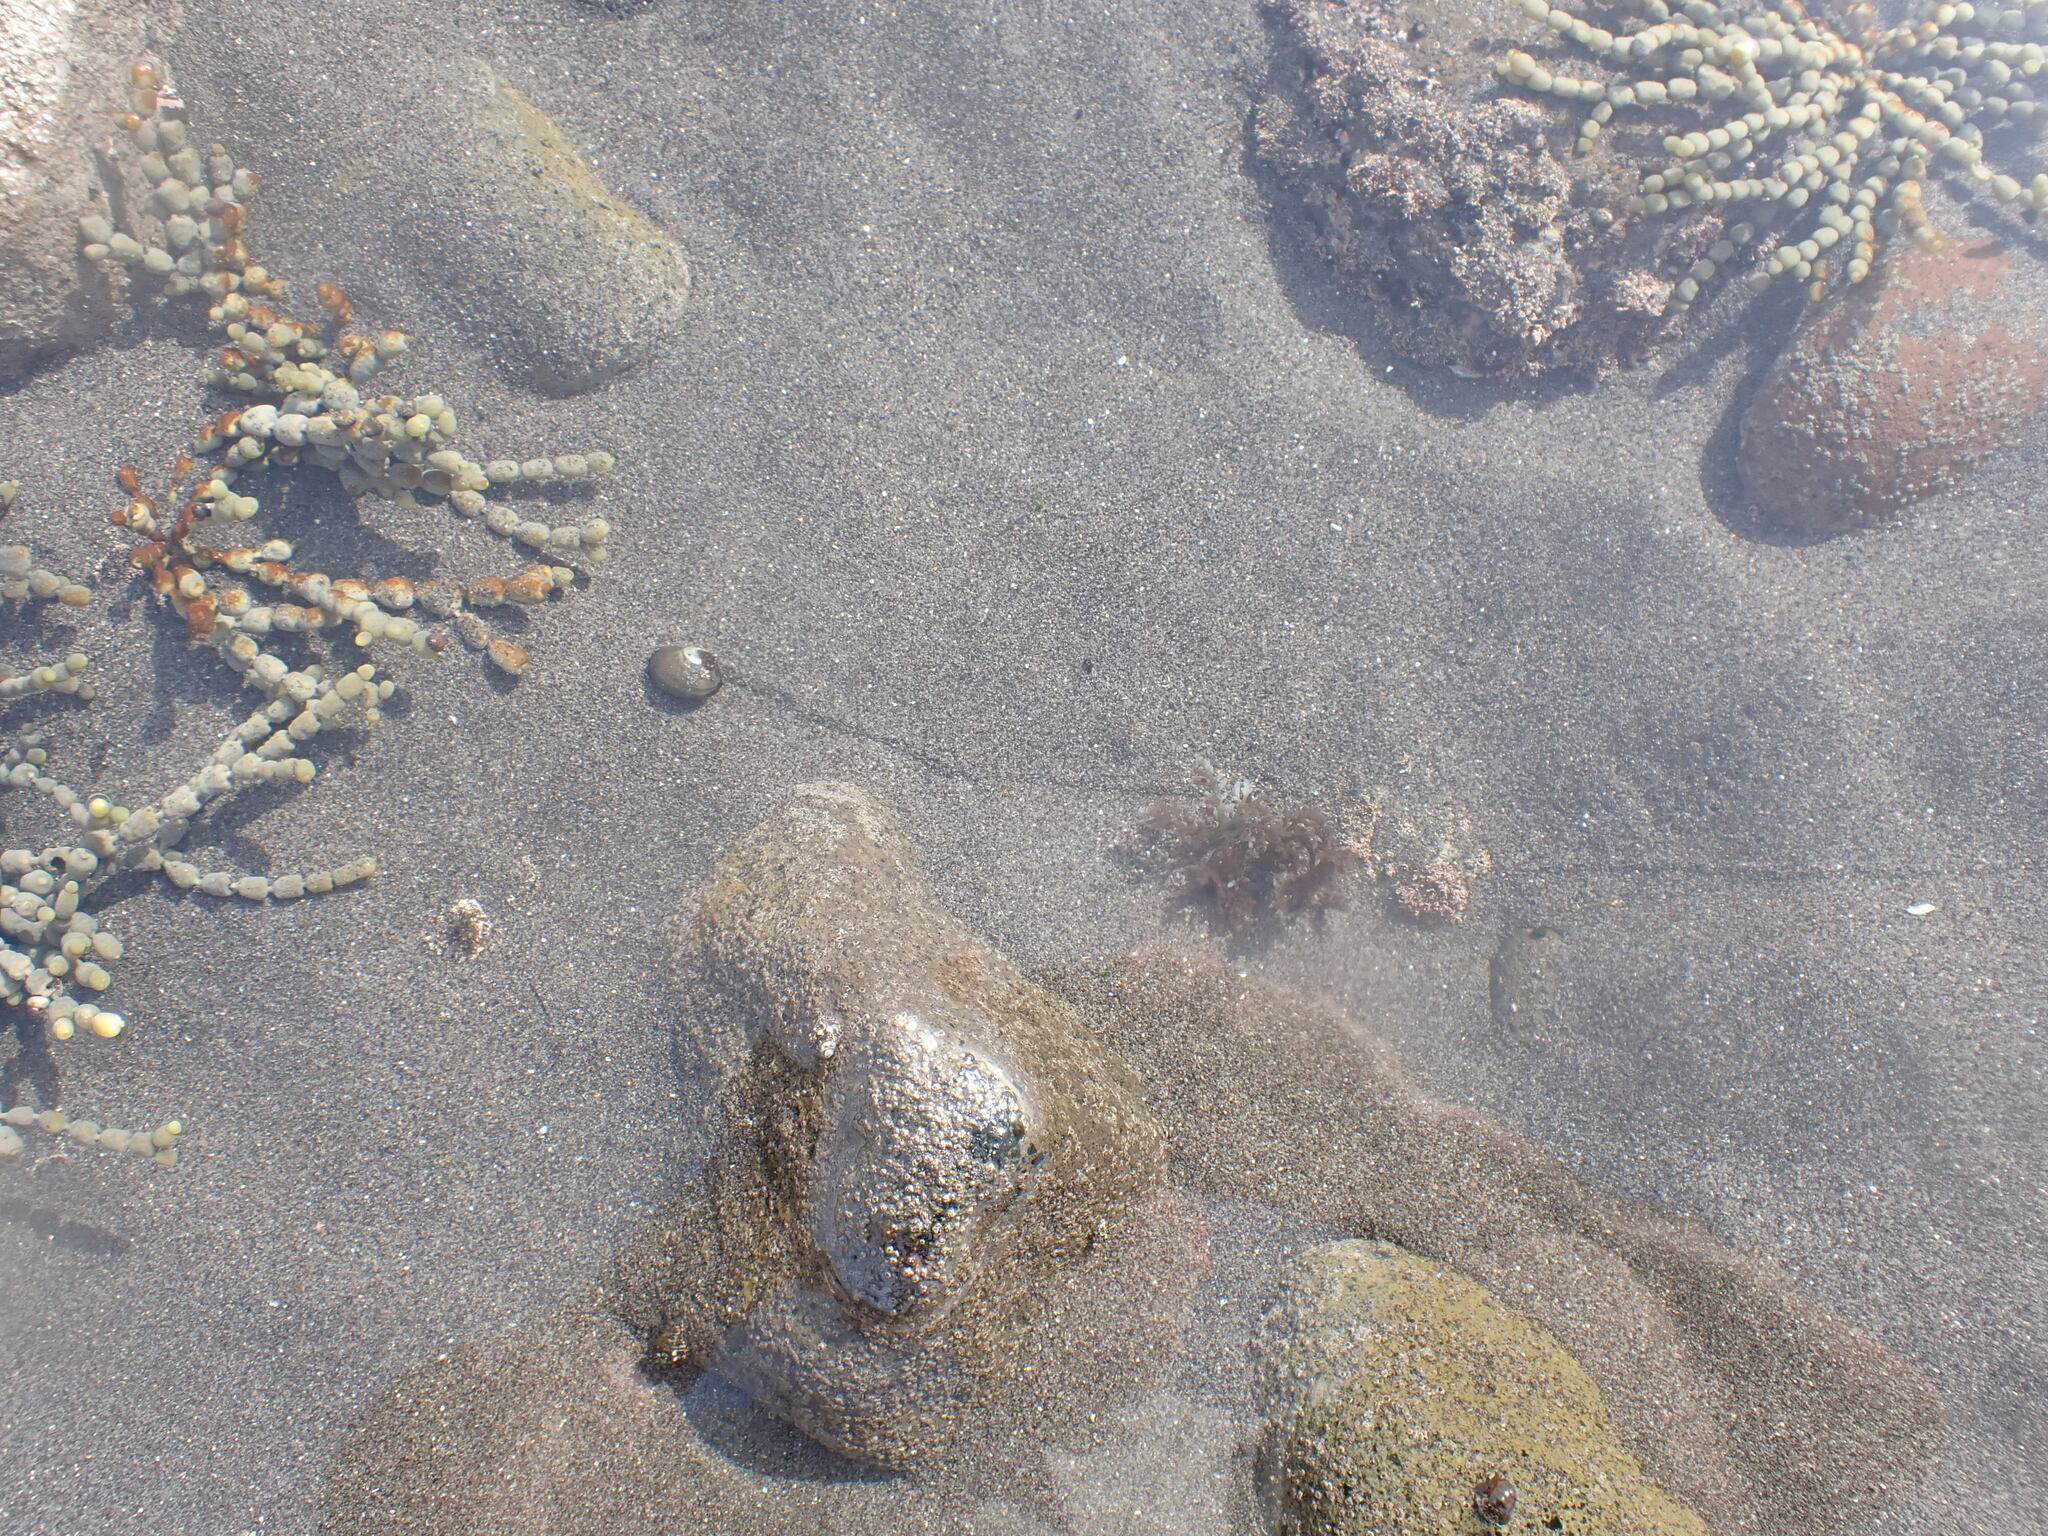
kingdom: Animalia
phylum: Mollusca
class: Gastropoda
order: Trochida
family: Turbinidae
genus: Lunella
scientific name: Lunella smaragda
